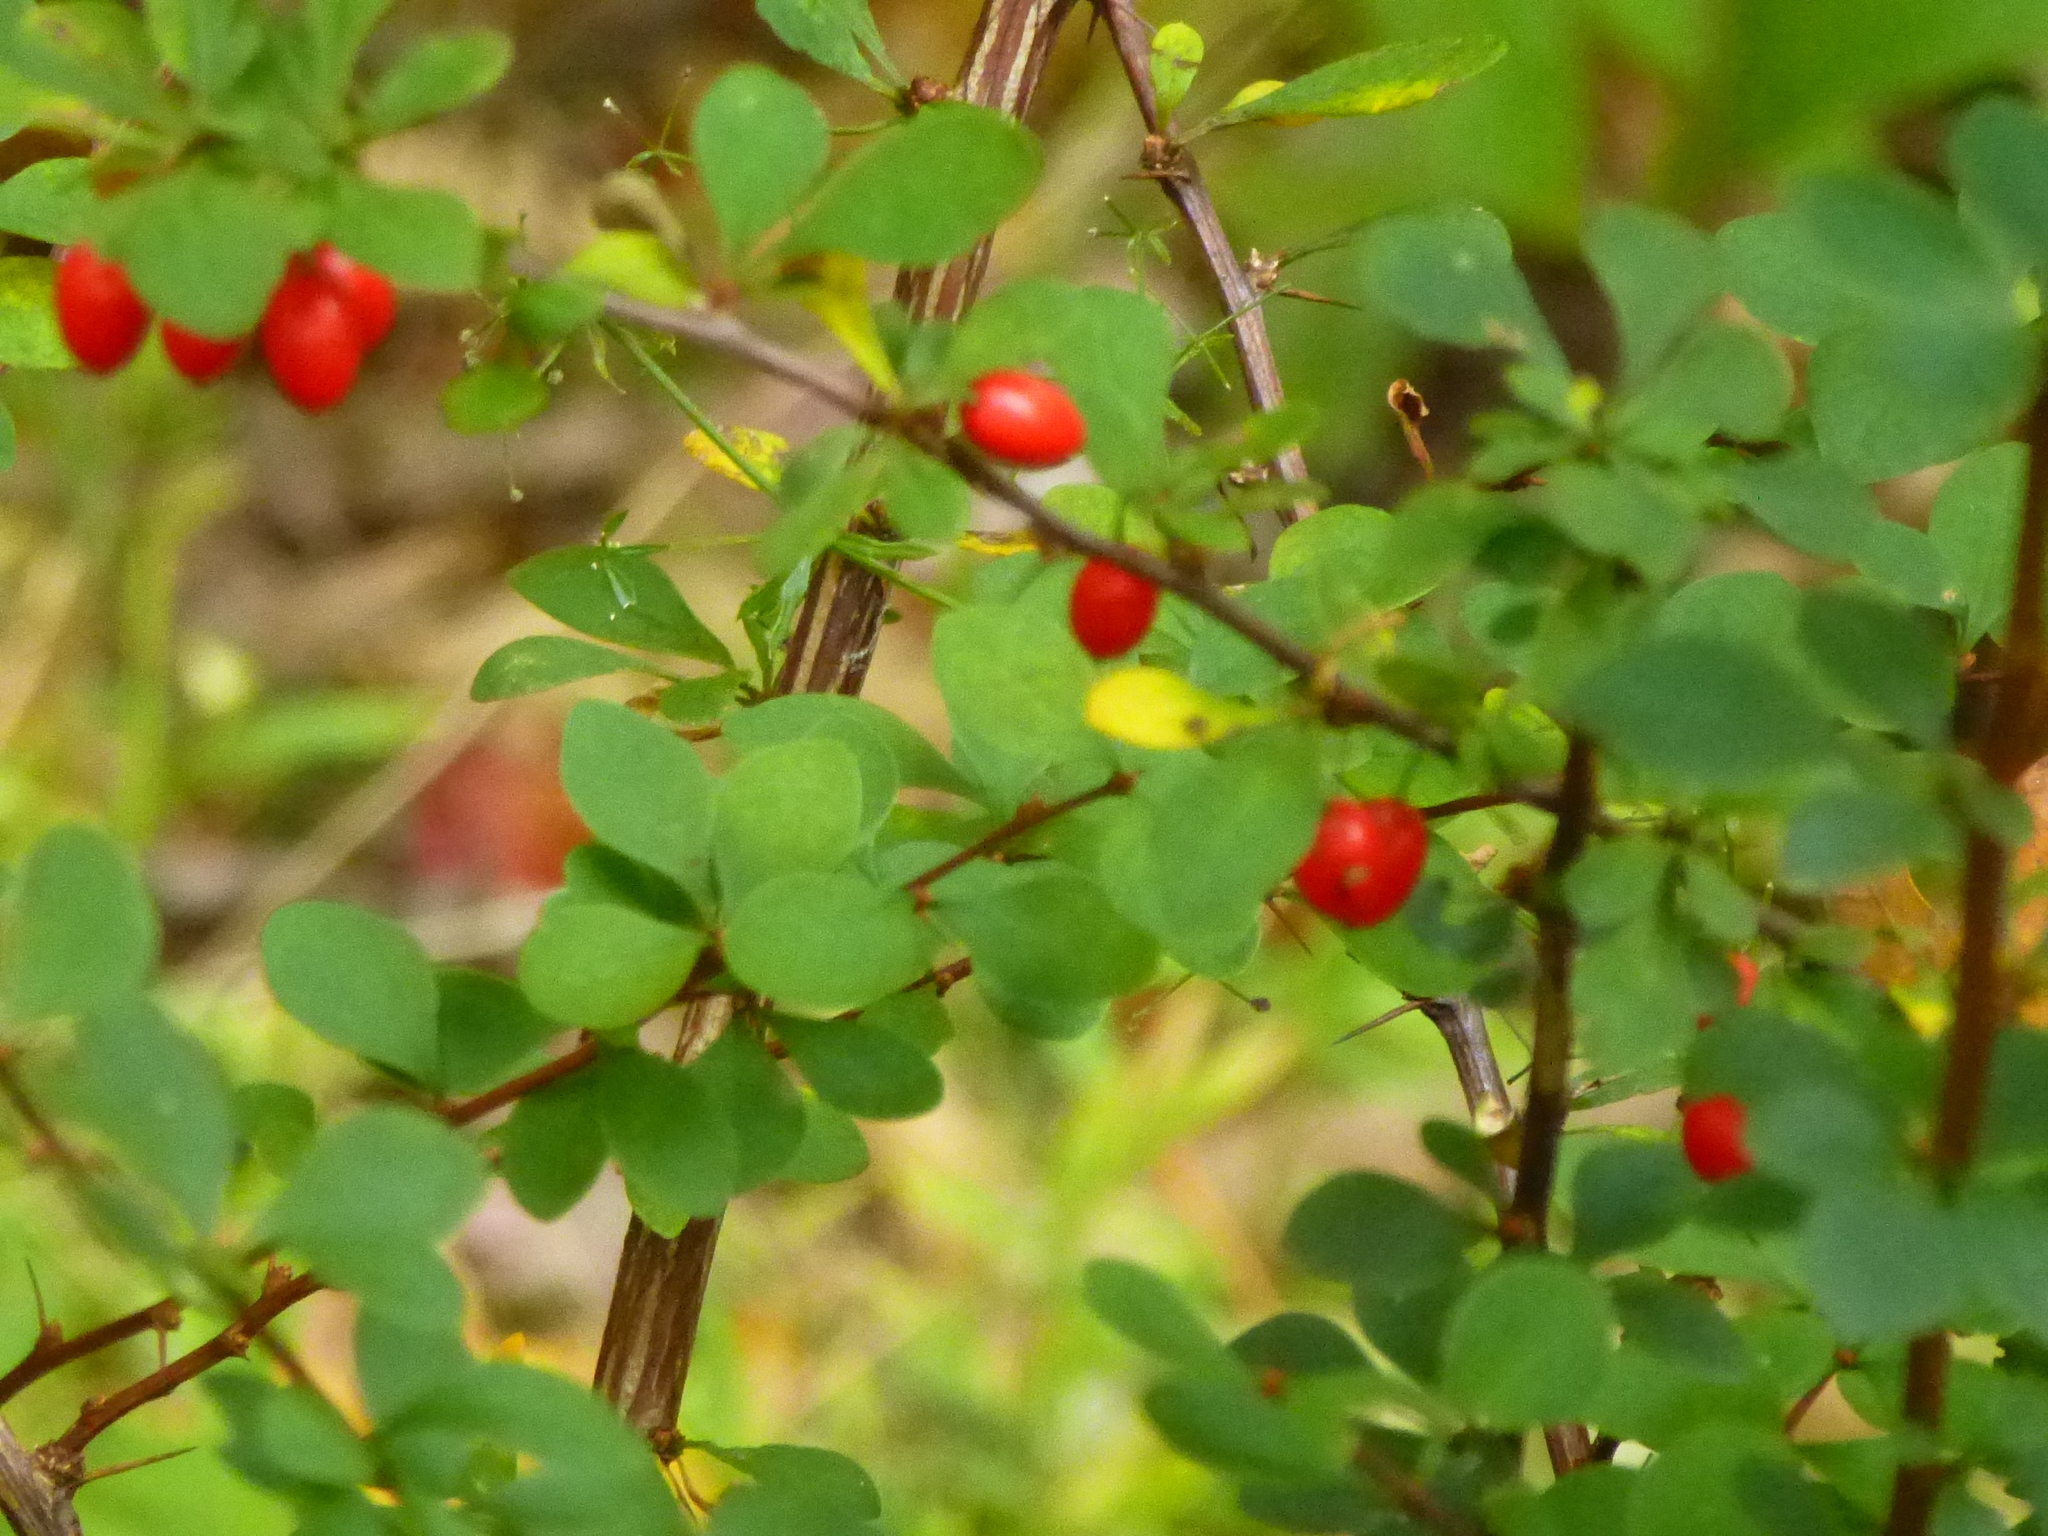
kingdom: Plantae
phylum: Tracheophyta
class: Magnoliopsida
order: Ranunculales
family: Berberidaceae
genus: Berberis
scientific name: Berberis thunbergii
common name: Japanese barberry
